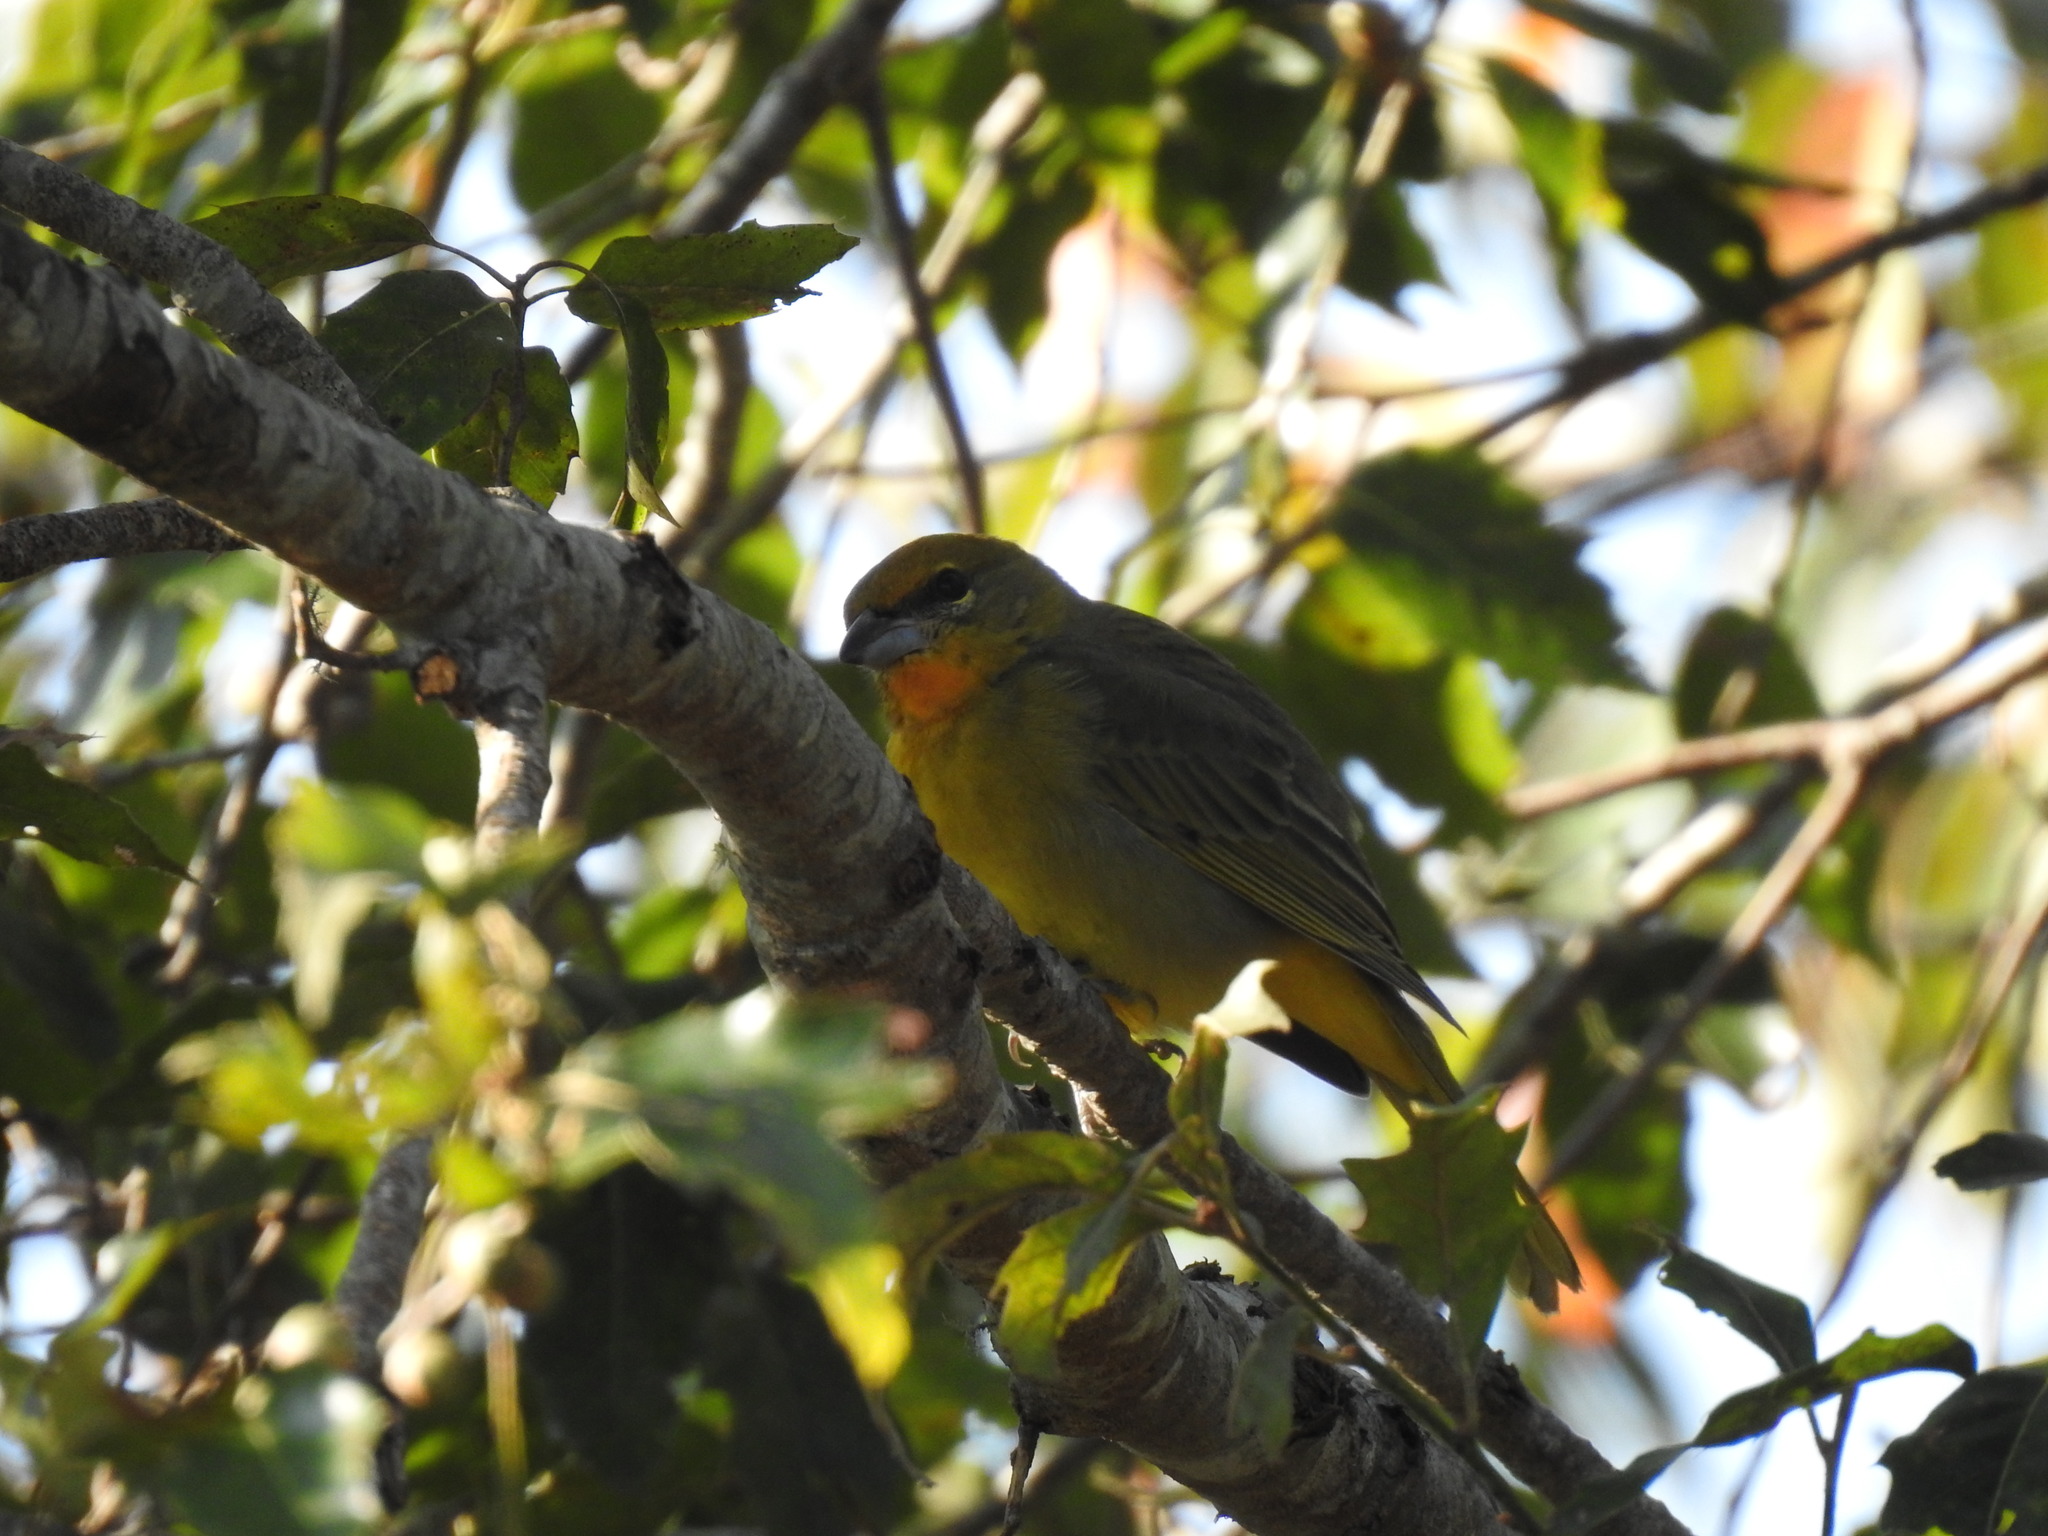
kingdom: Animalia
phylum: Chordata
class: Aves
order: Passeriformes
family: Cardinalidae
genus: Piranga
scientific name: Piranga flava
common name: Red tanager
